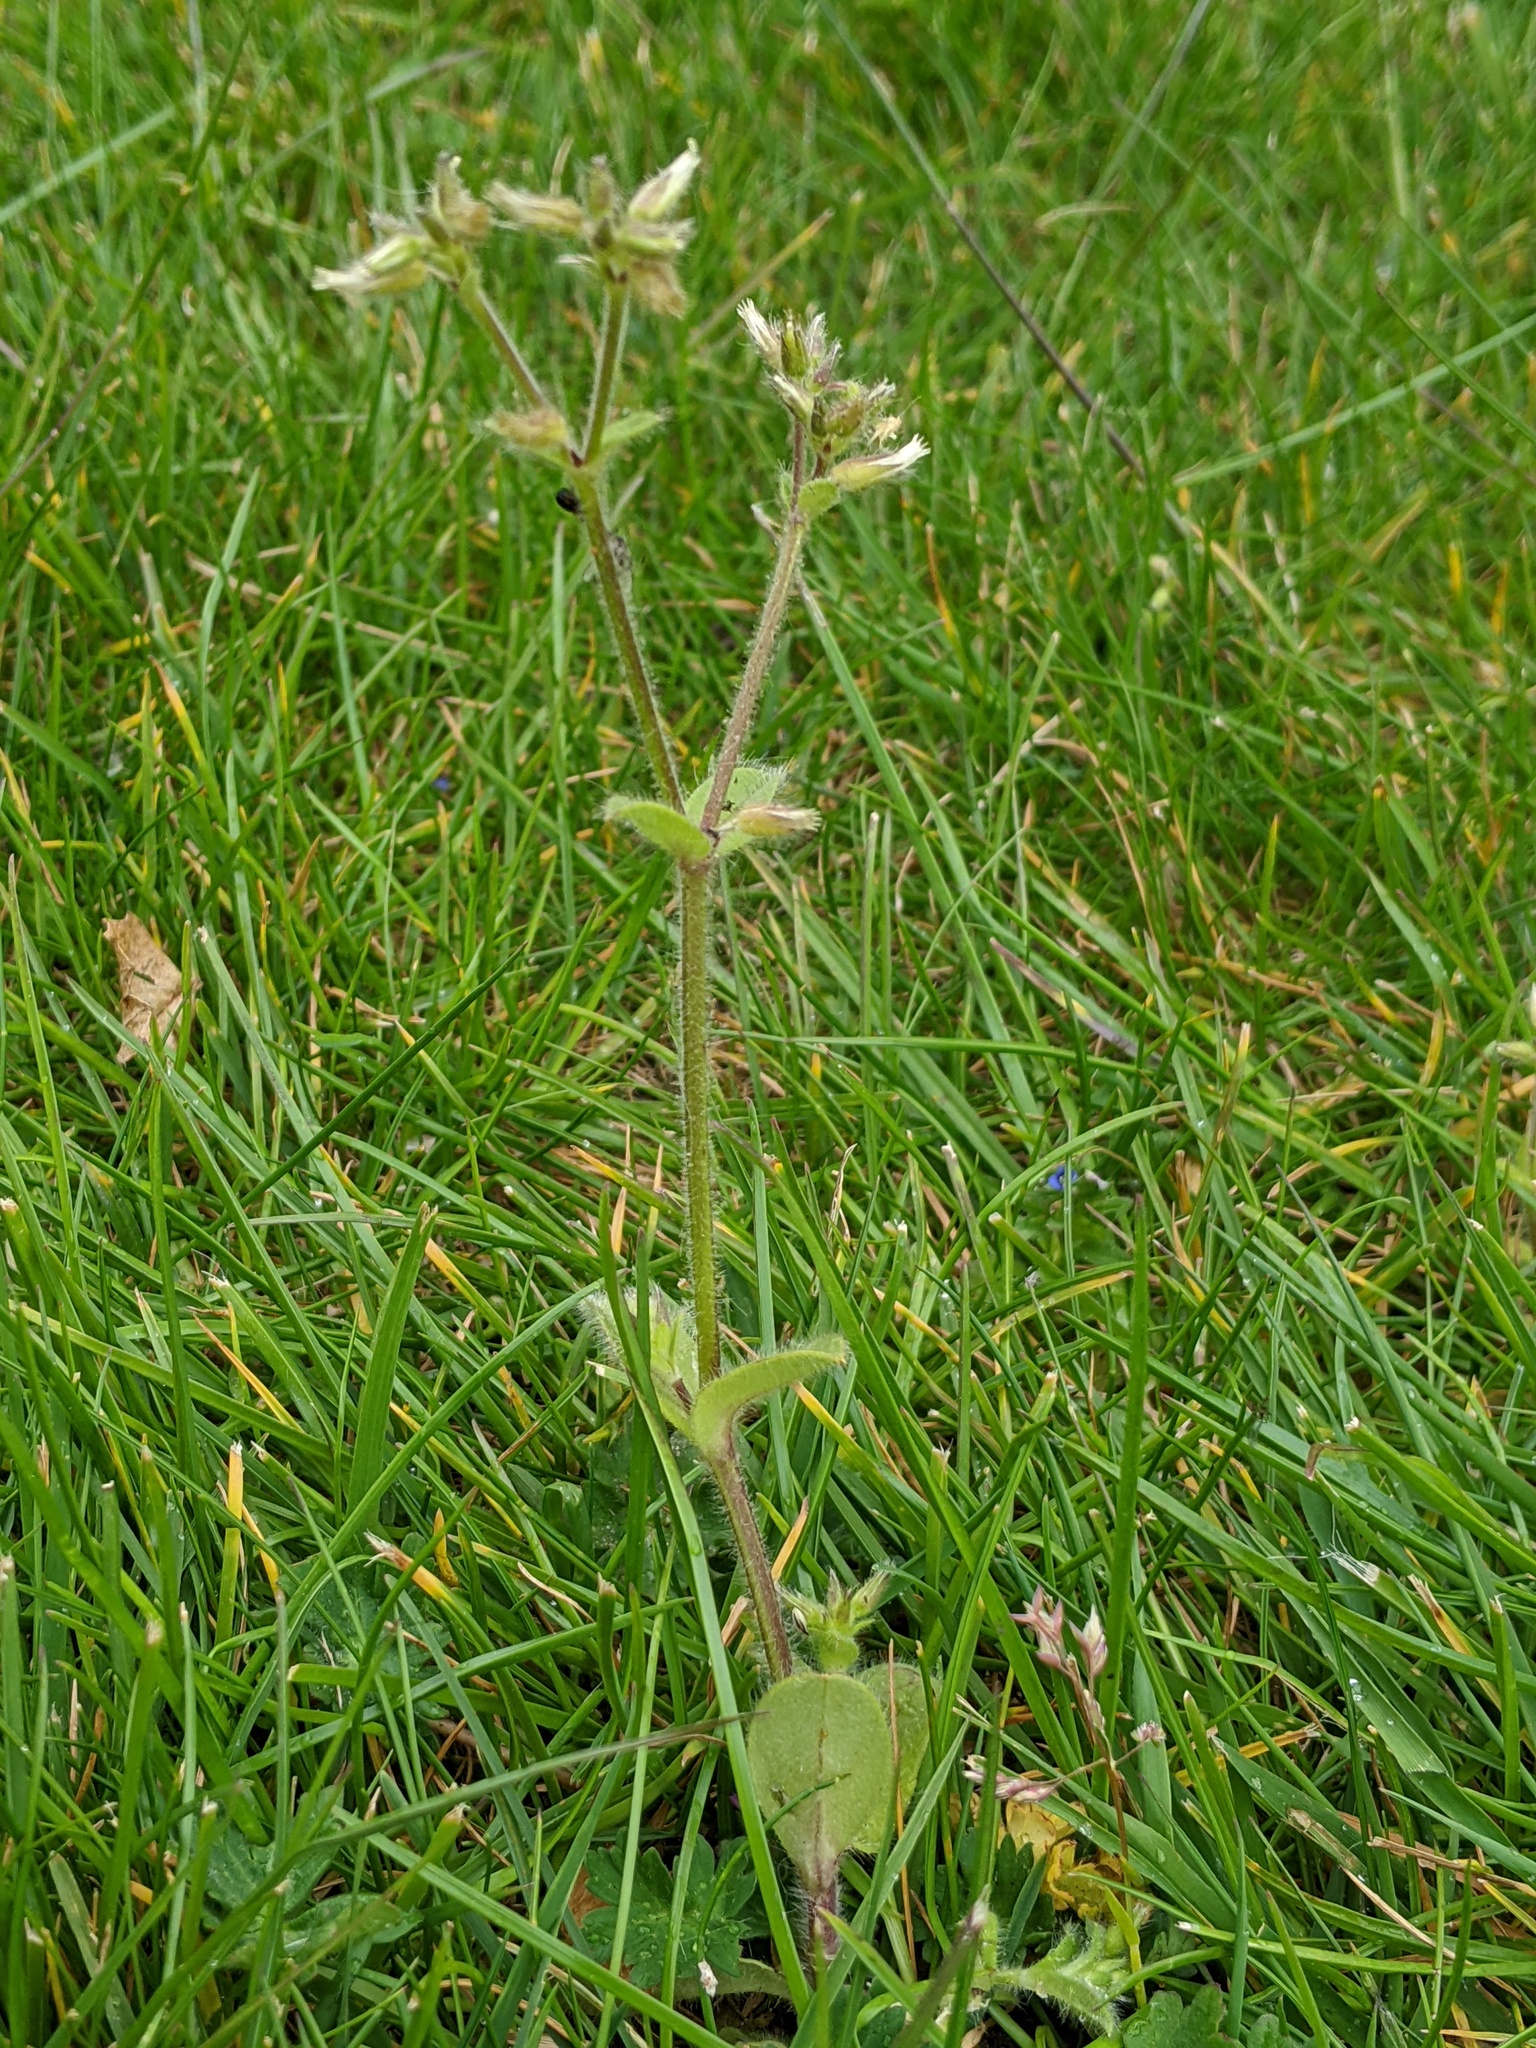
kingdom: Plantae
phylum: Tracheophyta
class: Magnoliopsida
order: Caryophyllales
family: Caryophyllaceae
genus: Cerastium
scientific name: Cerastium glomeratum
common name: Sticky chickweed
